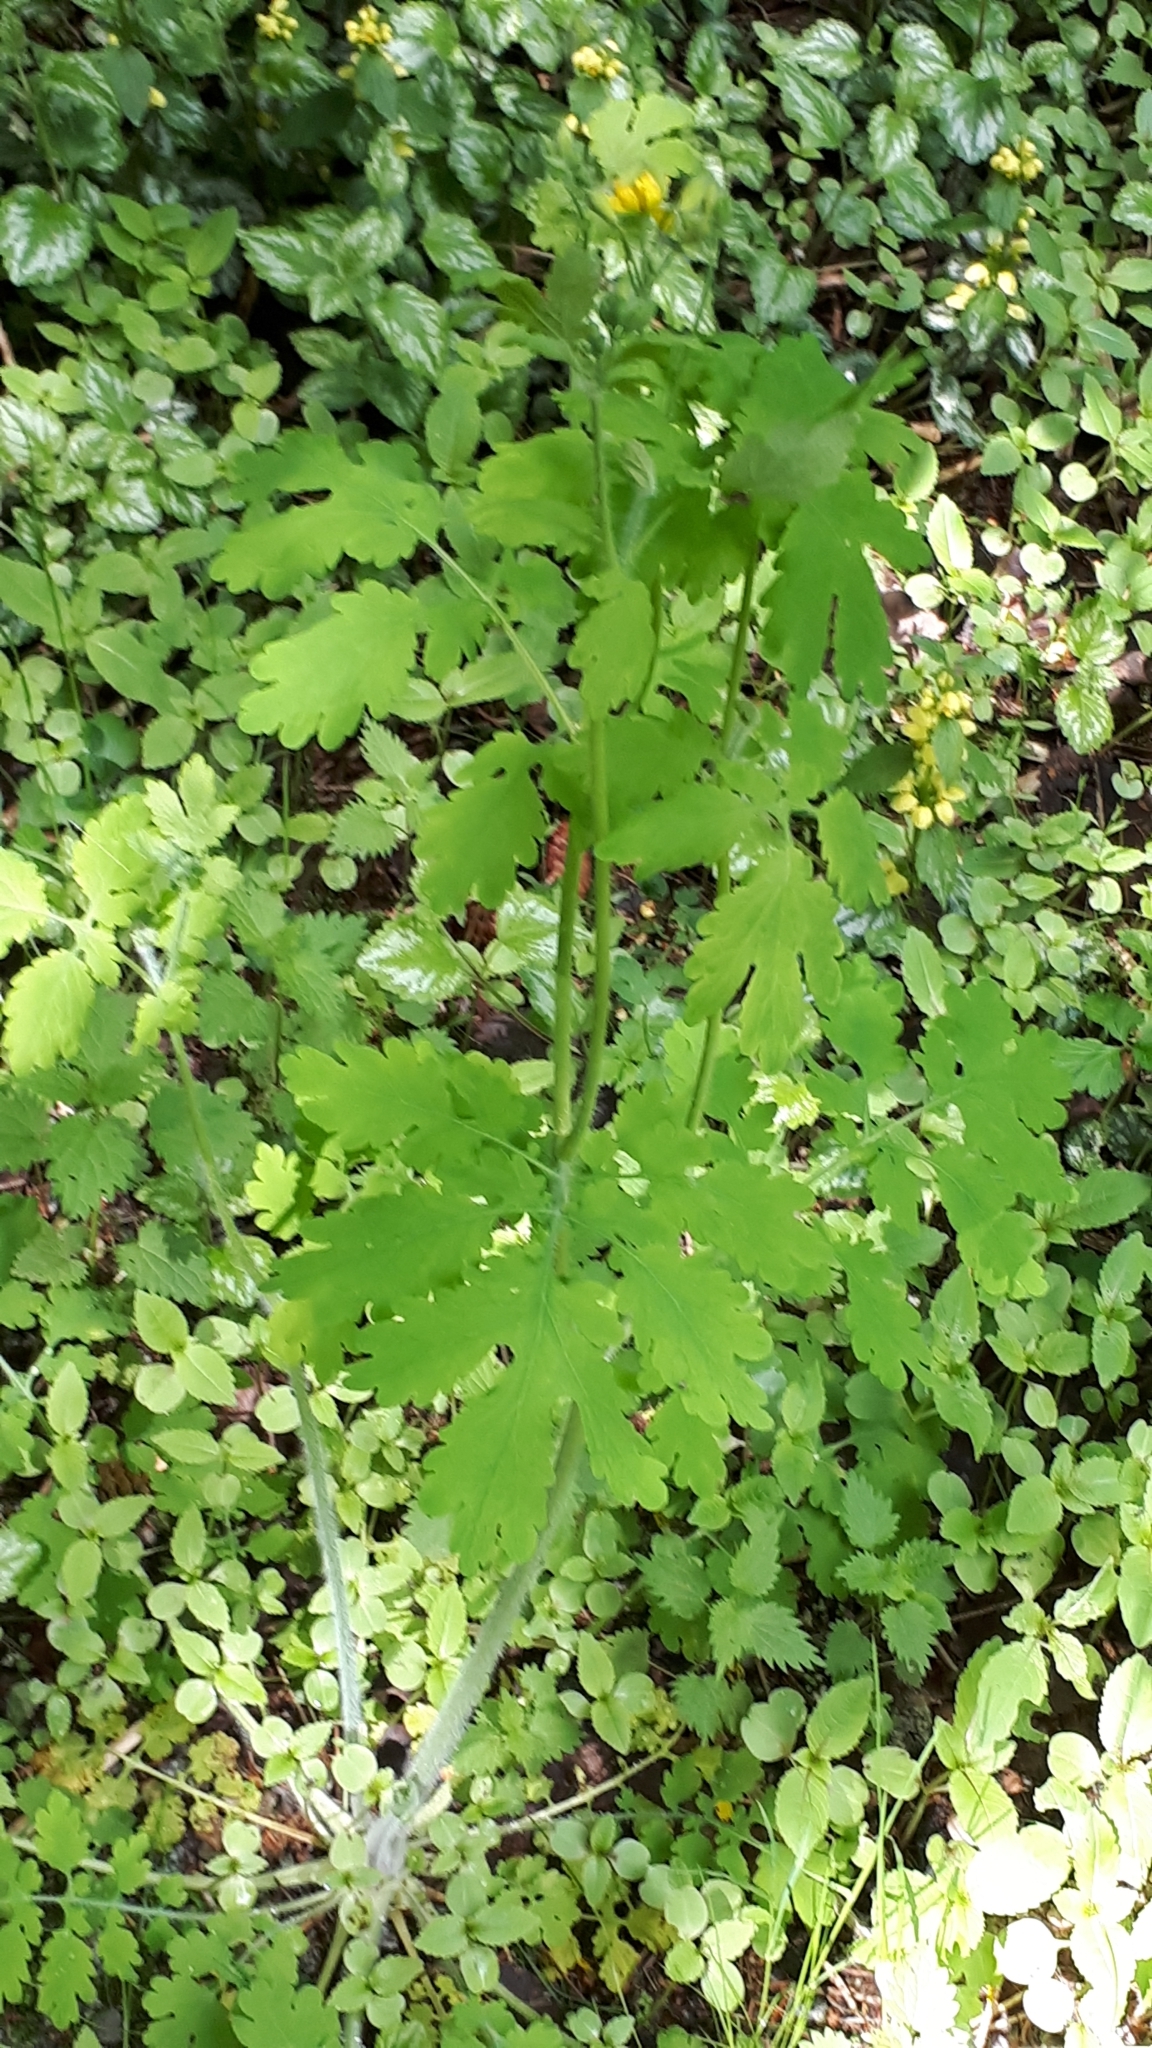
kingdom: Plantae
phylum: Tracheophyta
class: Magnoliopsida
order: Ranunculales
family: Papaveraceae
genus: Chelidonium
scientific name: Chelidonium majus
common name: Greater celandine
